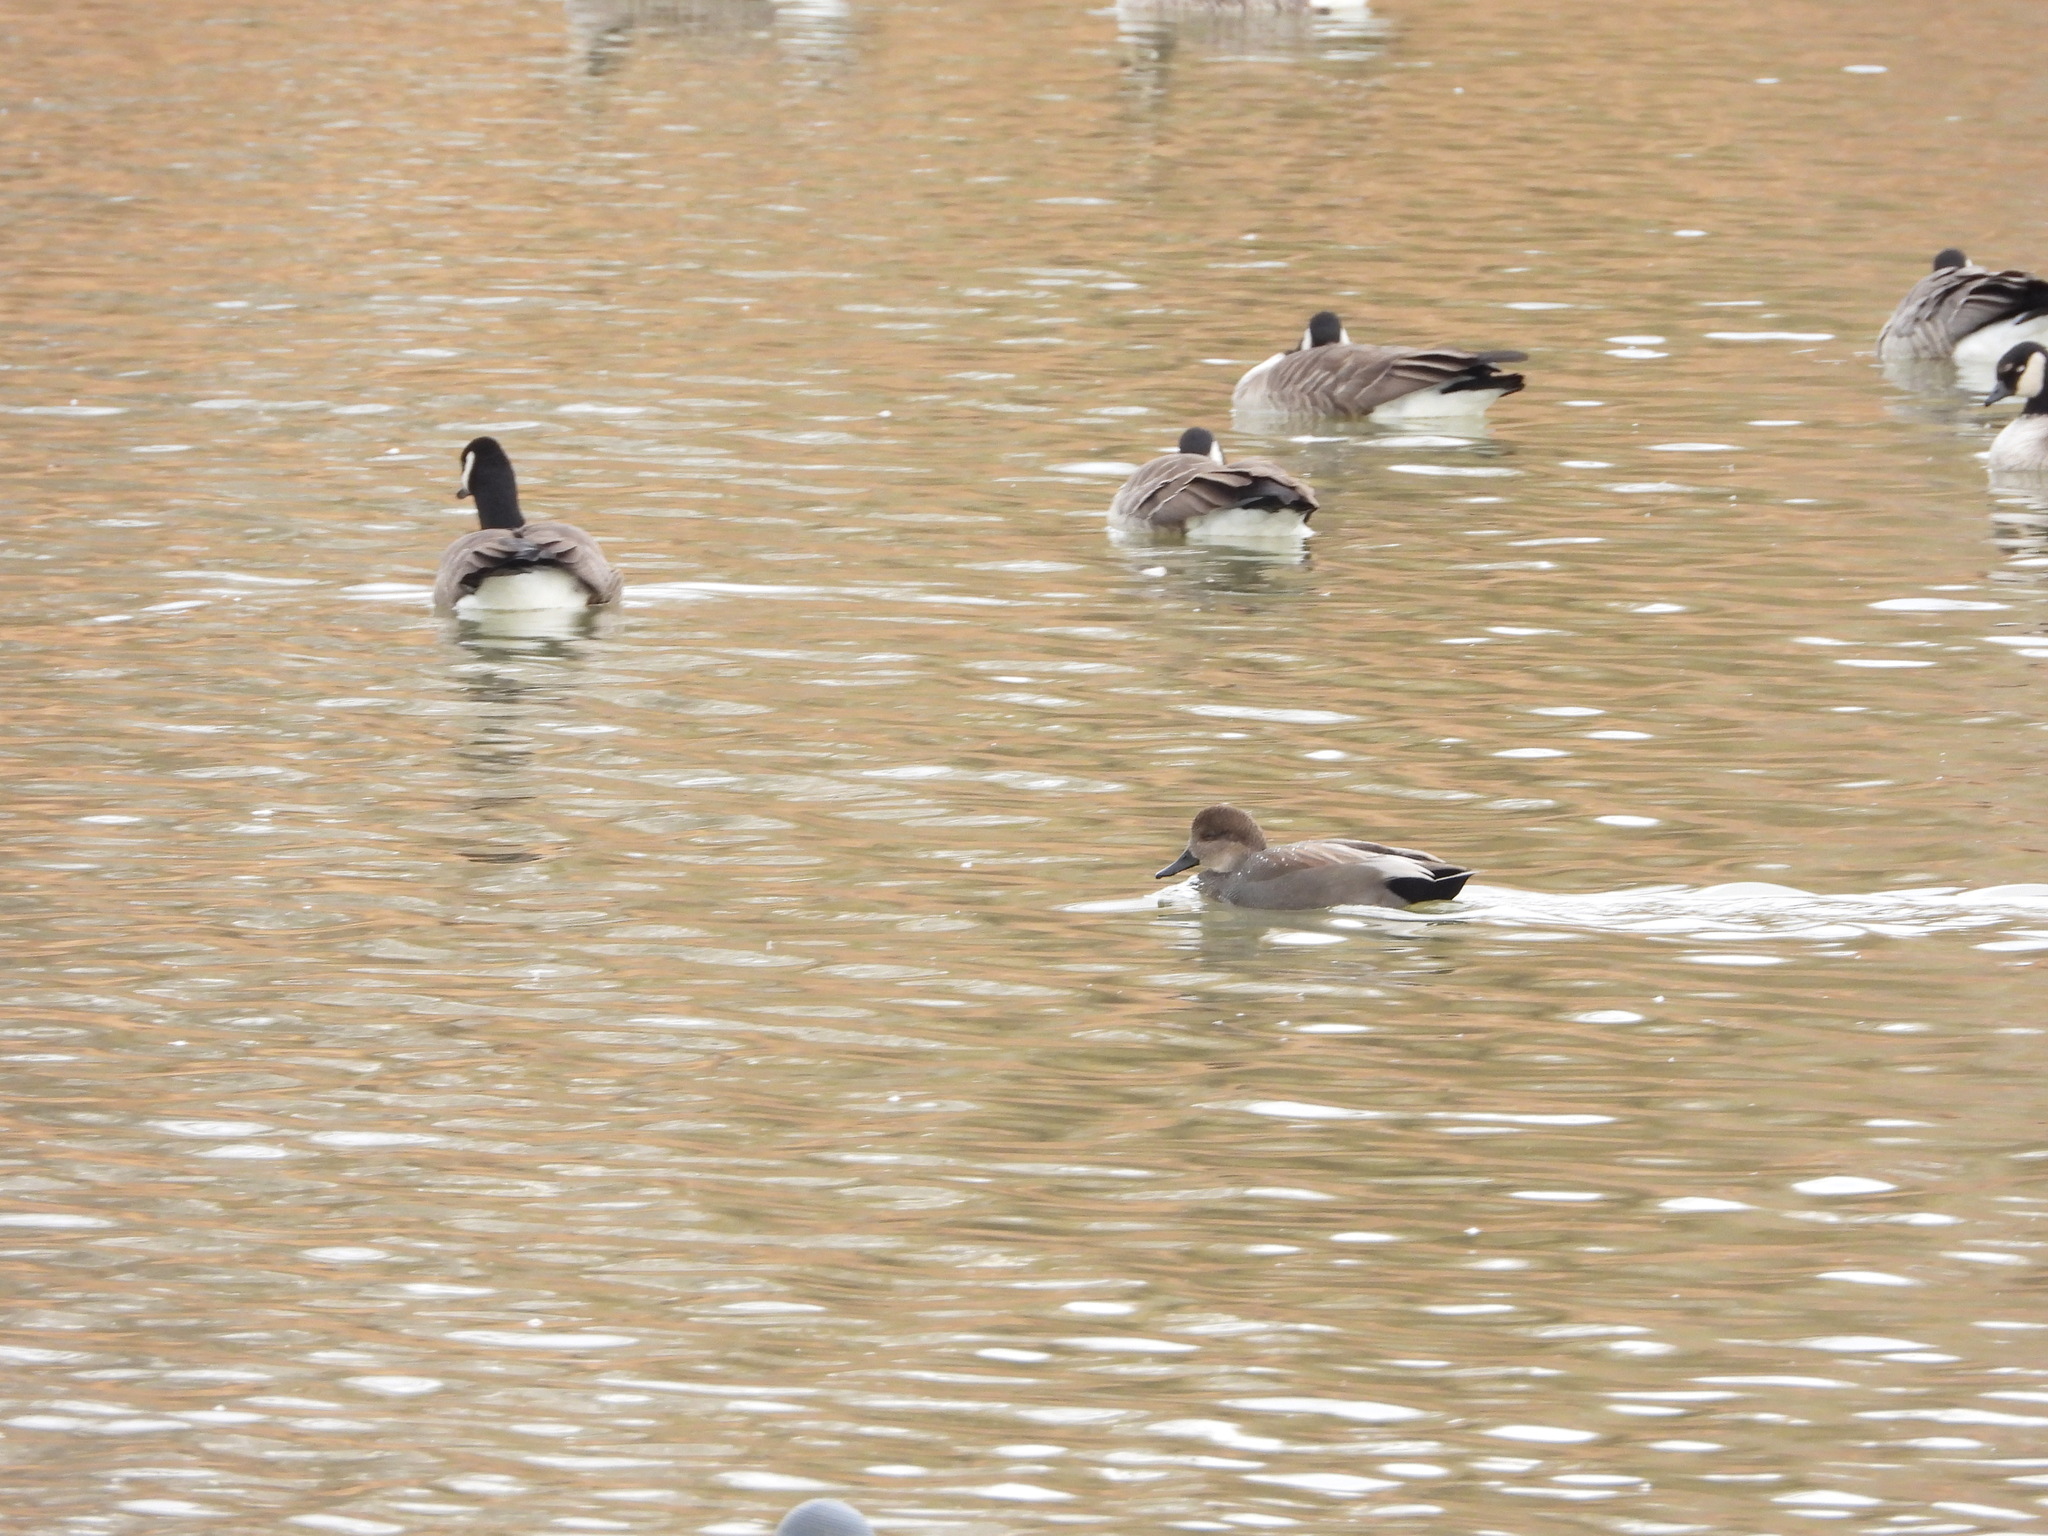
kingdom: Animalia
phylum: Chordata
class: Aves
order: Anseriformes
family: Anatidae
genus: Mareca
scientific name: Mareca strepera
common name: Gadwall
